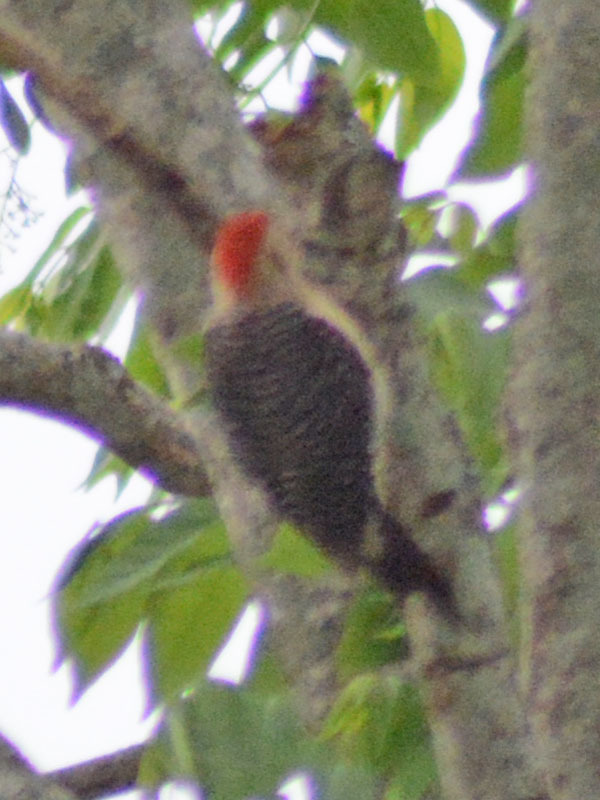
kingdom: Animalia
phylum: Chordata
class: Aves
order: Piciformes
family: Picidae
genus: Melanerpes
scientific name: Melanerpes aurifrons
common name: Golden-fronted woodpecker
